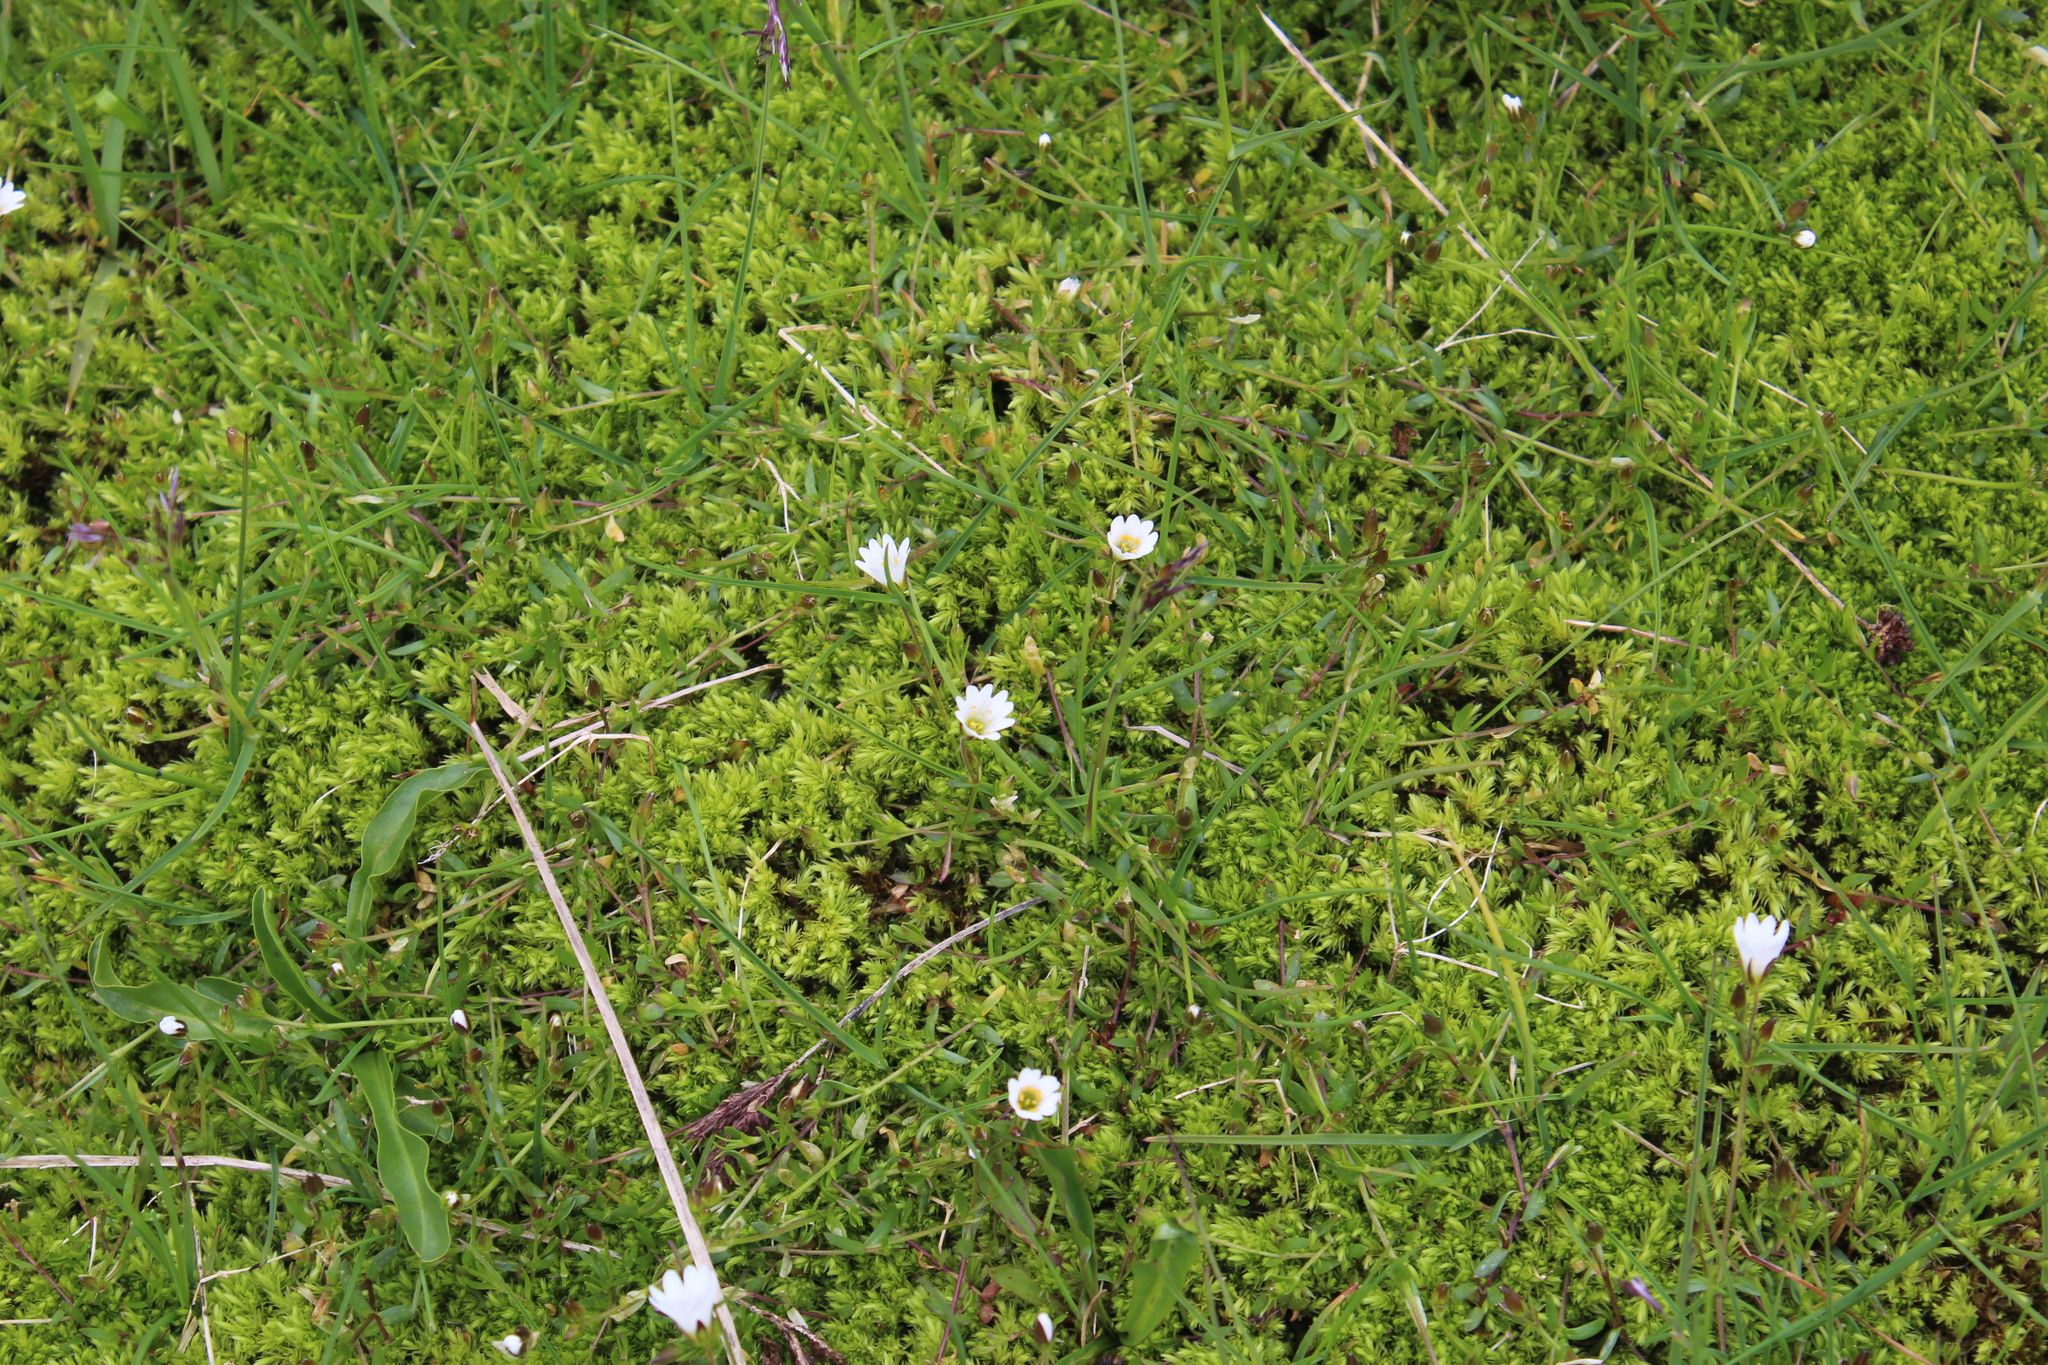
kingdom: Plantae
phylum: Tracheophyta
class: Magnoliopsida
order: Caryophyllales
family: Caryophyllaceae
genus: Dichodon
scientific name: Dichodon cerastoides
